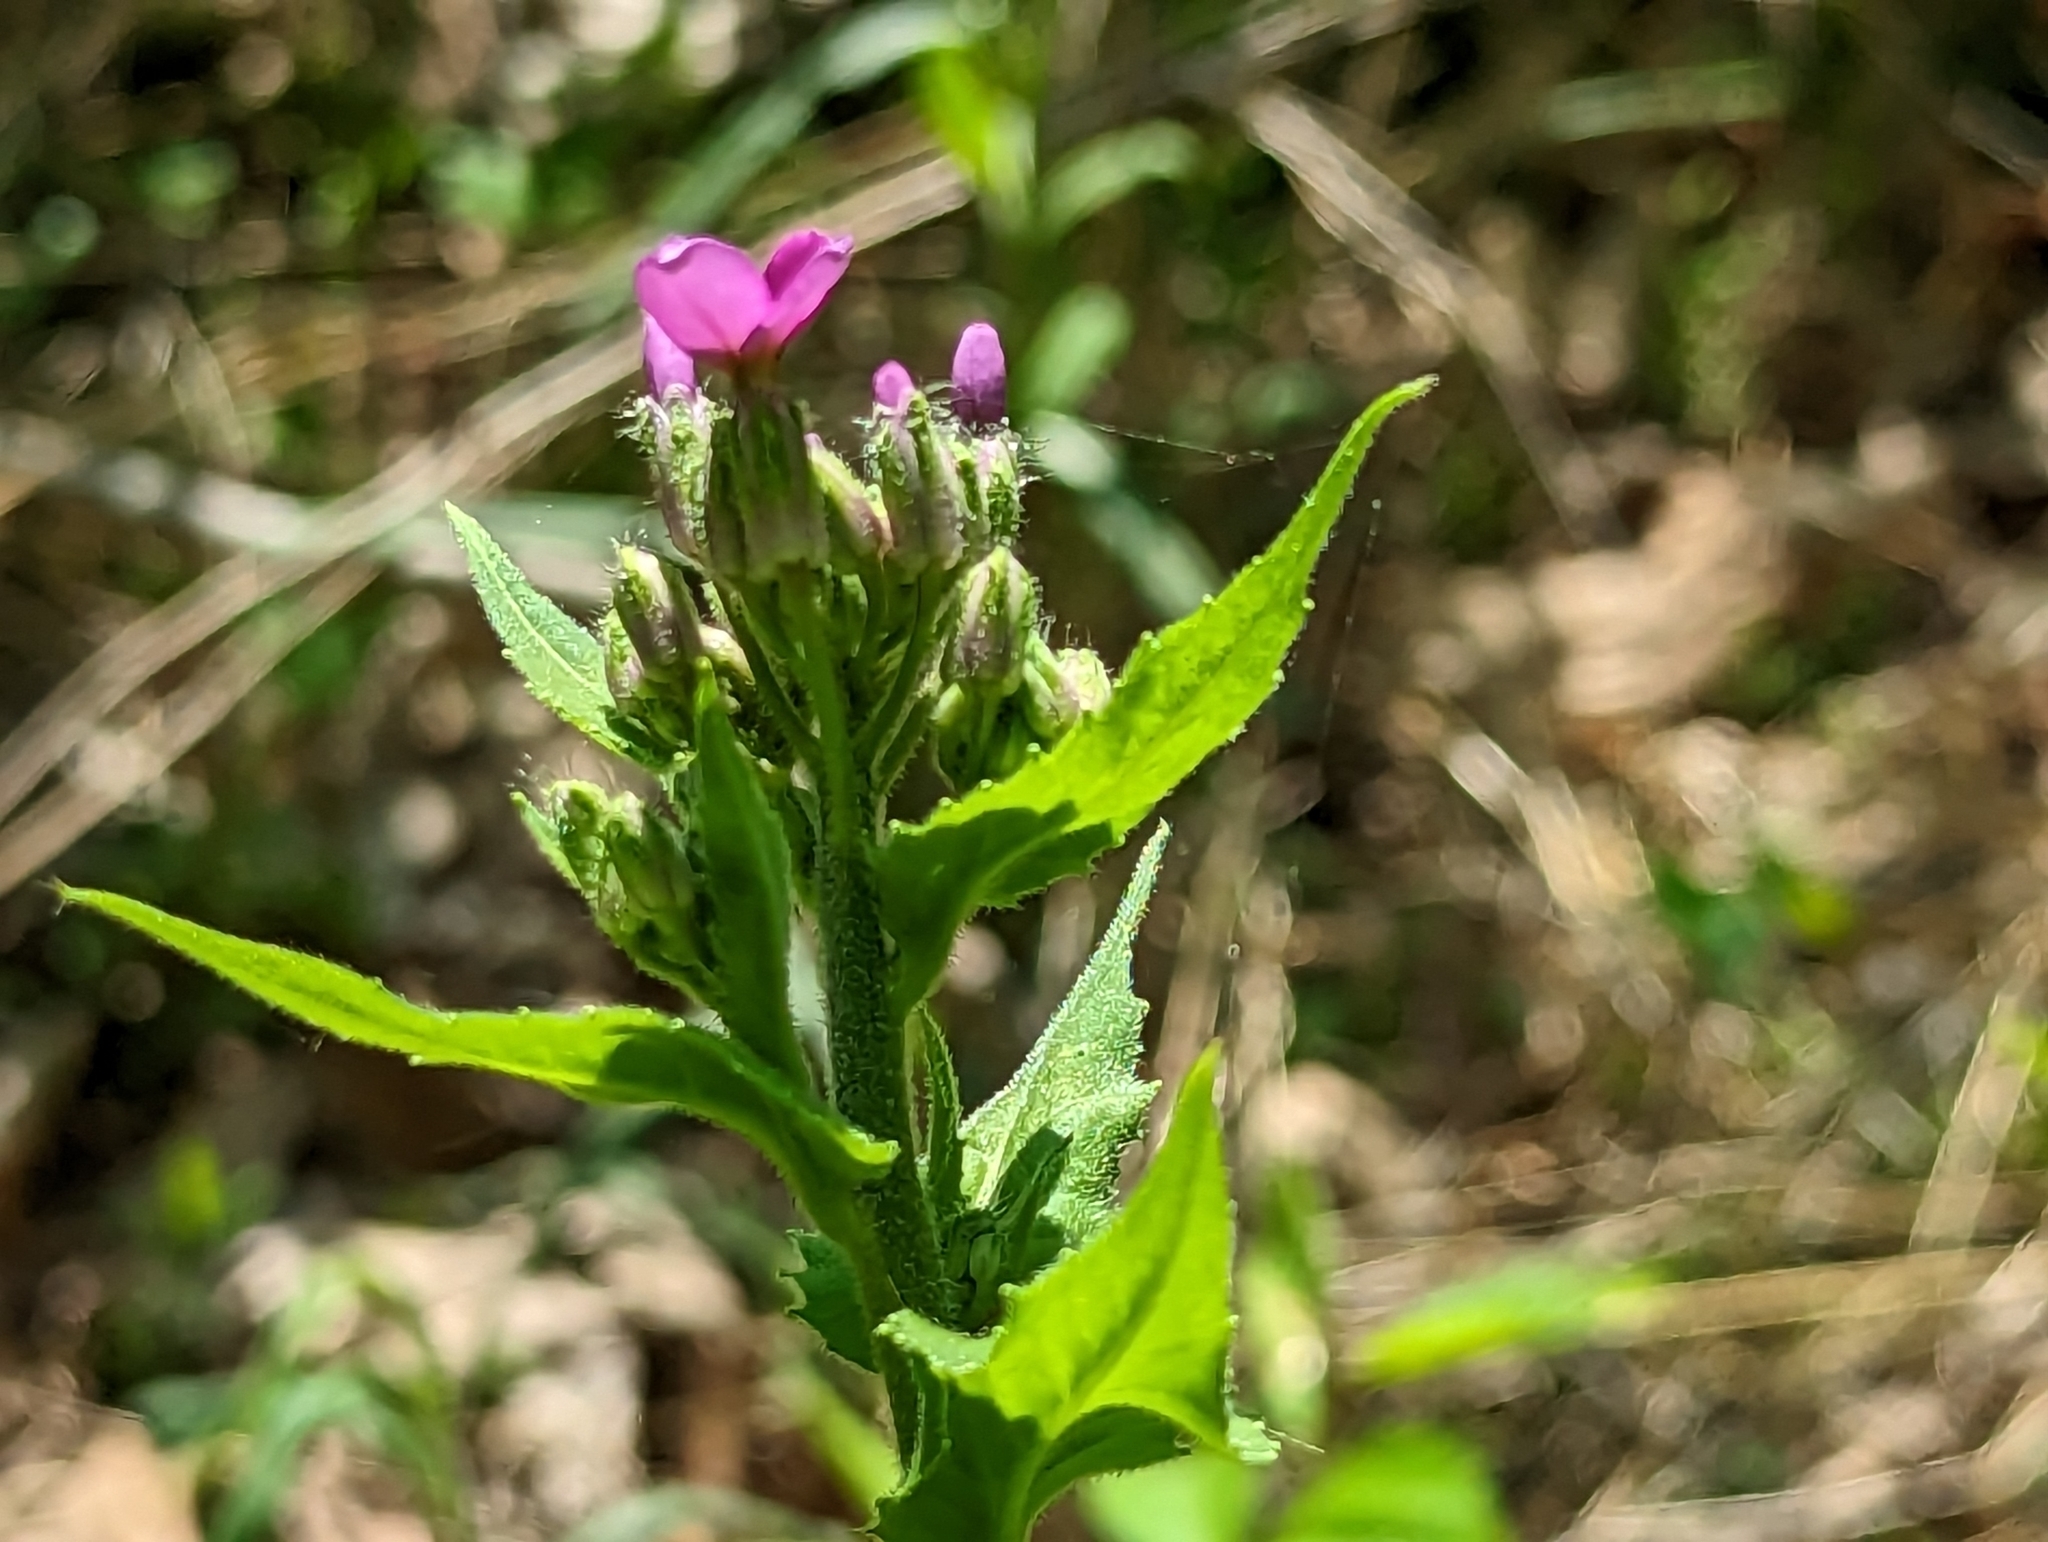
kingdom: Plantae
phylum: Tracheophyta
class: Magnoliopsida
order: Brassicales
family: Brassicaceae
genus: Hesperis
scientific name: Hesperis matronalis
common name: Dame's-violet
